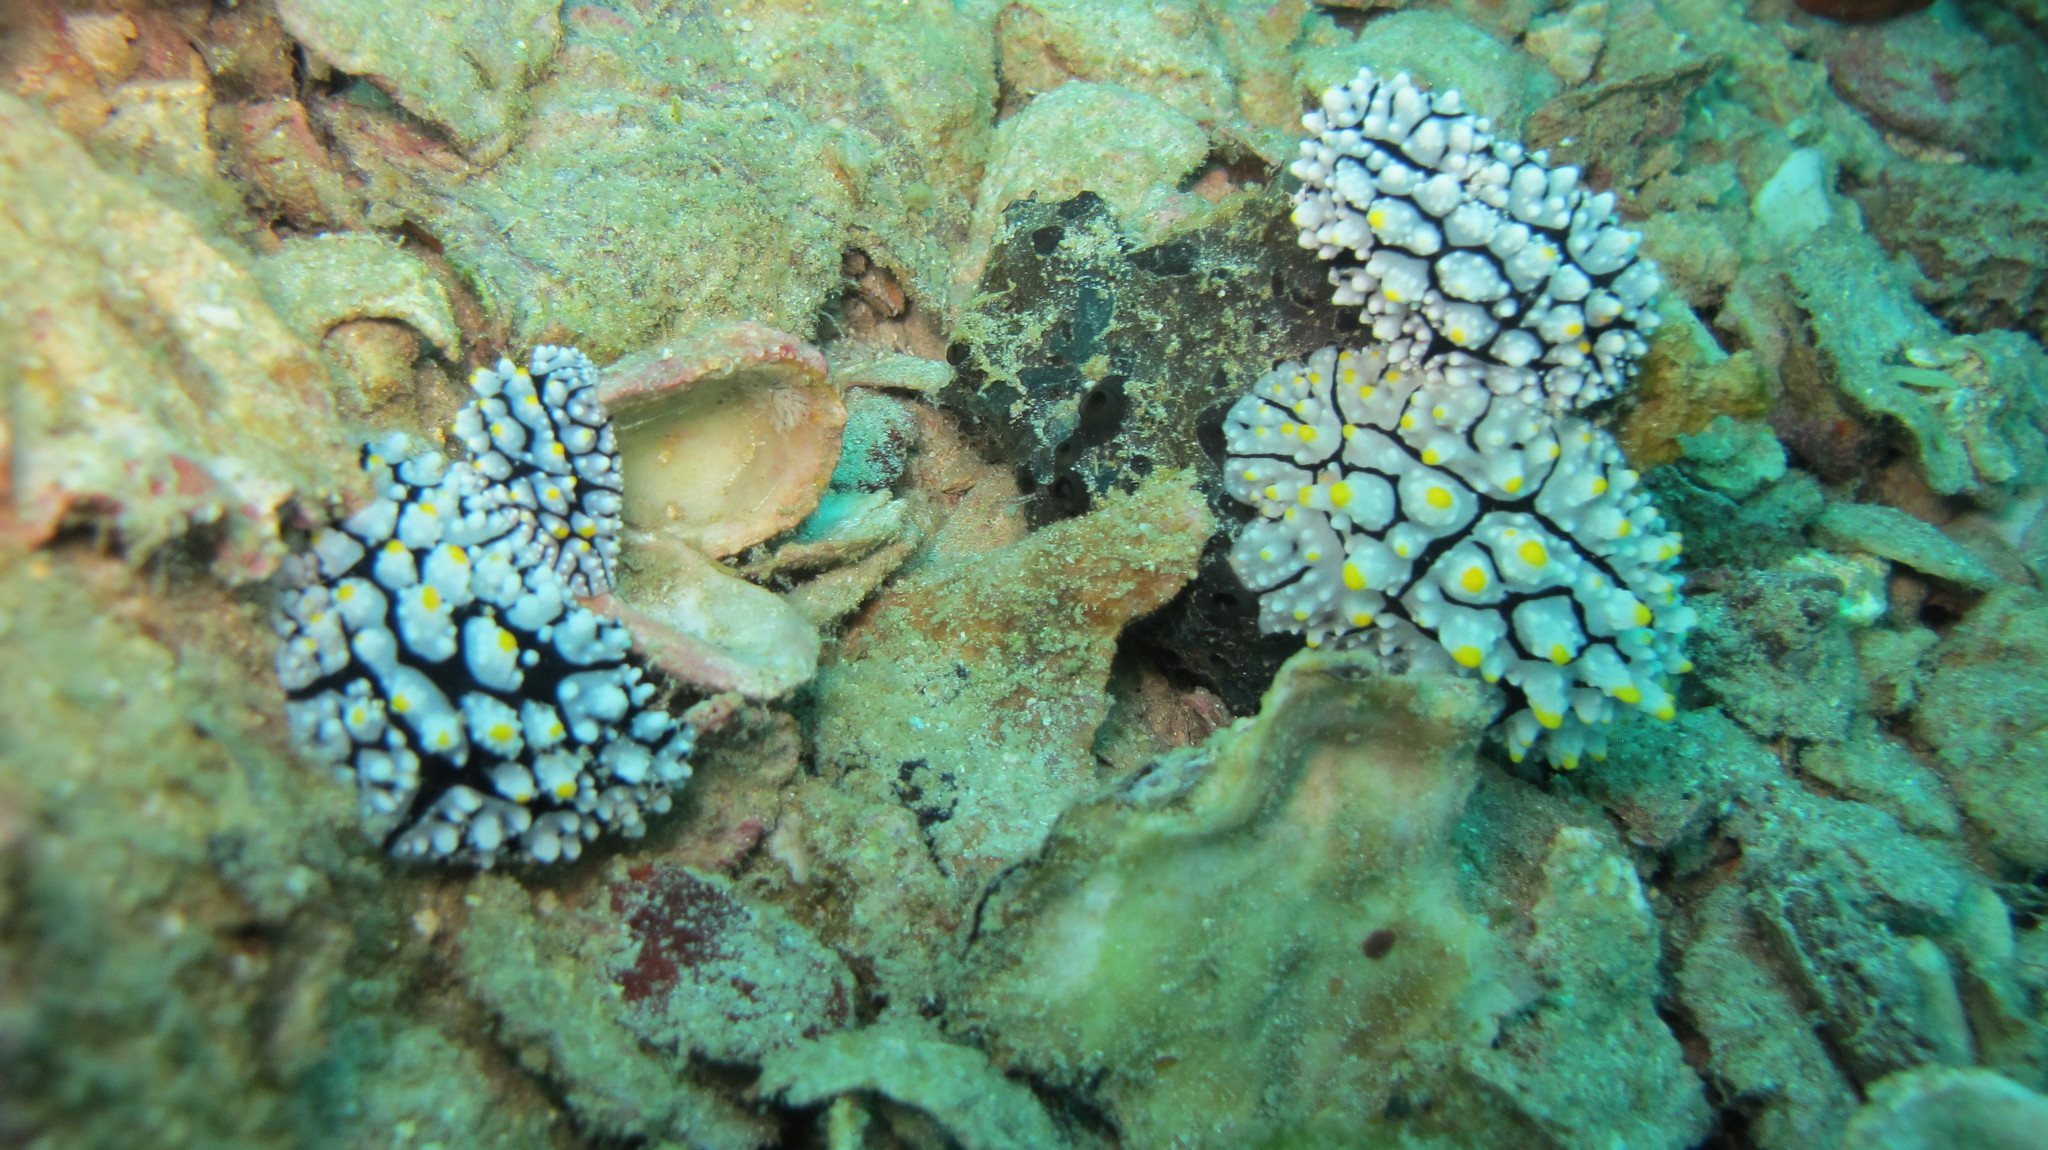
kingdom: Animalia
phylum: Mollusca
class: Gastropoda
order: Nudibranchia
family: Phyllidiidae
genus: Phyllidia
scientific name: Phyllidia elegans
